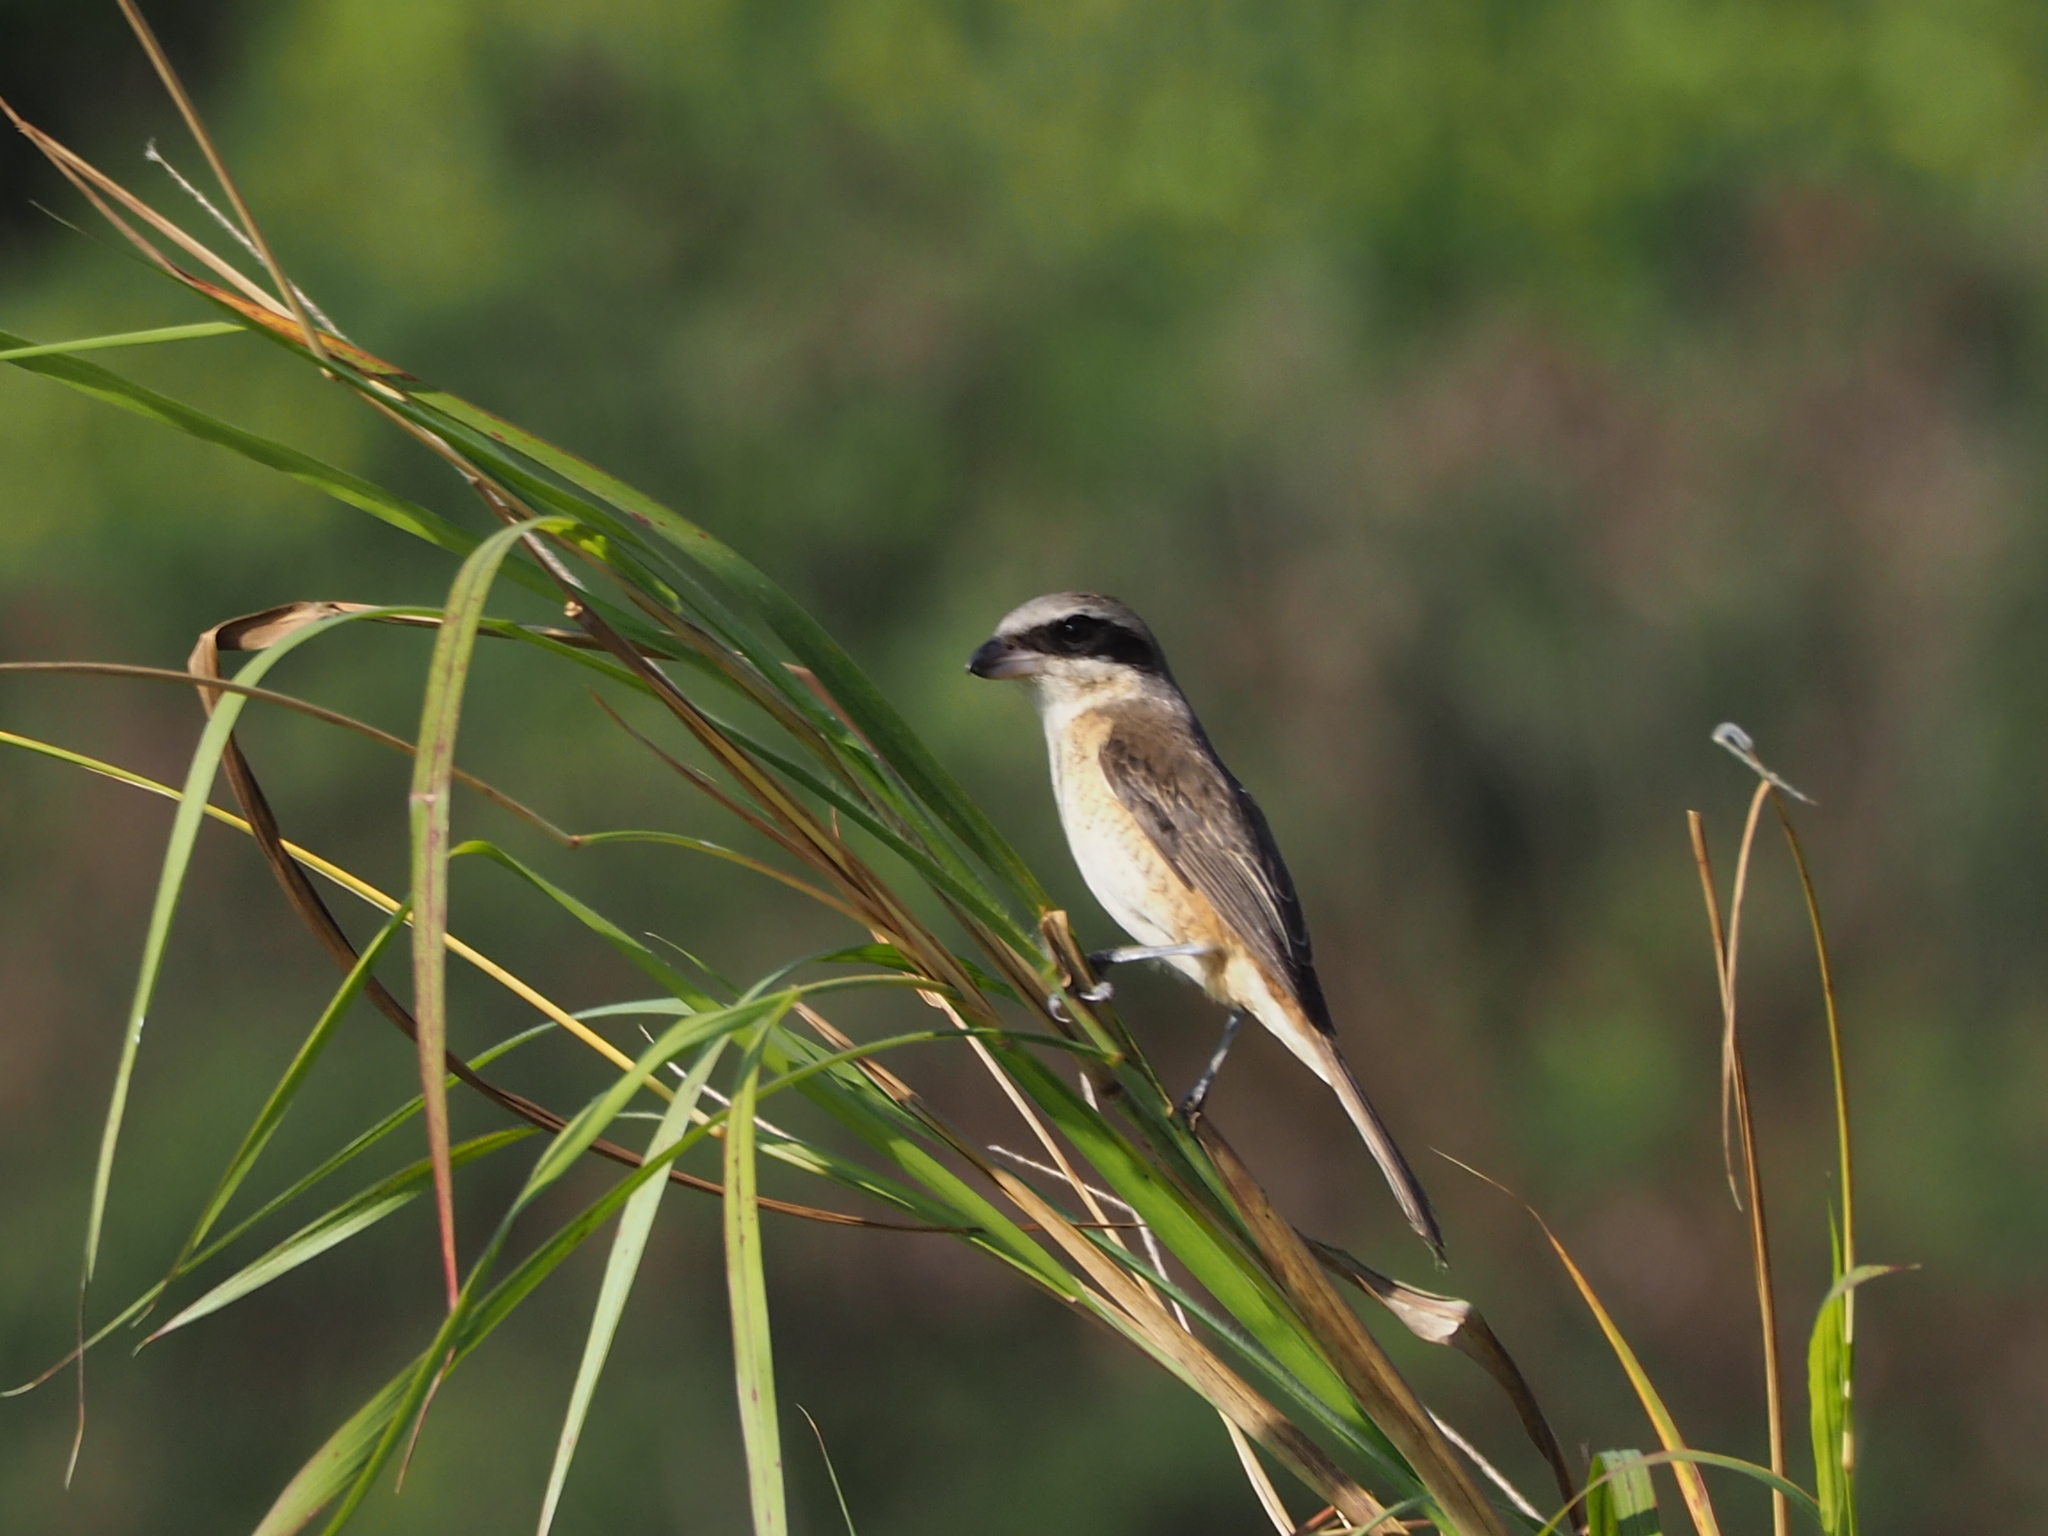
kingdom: Animalia
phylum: Chordata
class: Aves
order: Passeriformes
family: Laniidae
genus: Lanius
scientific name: Lanius cristatus
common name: Brown shrike
